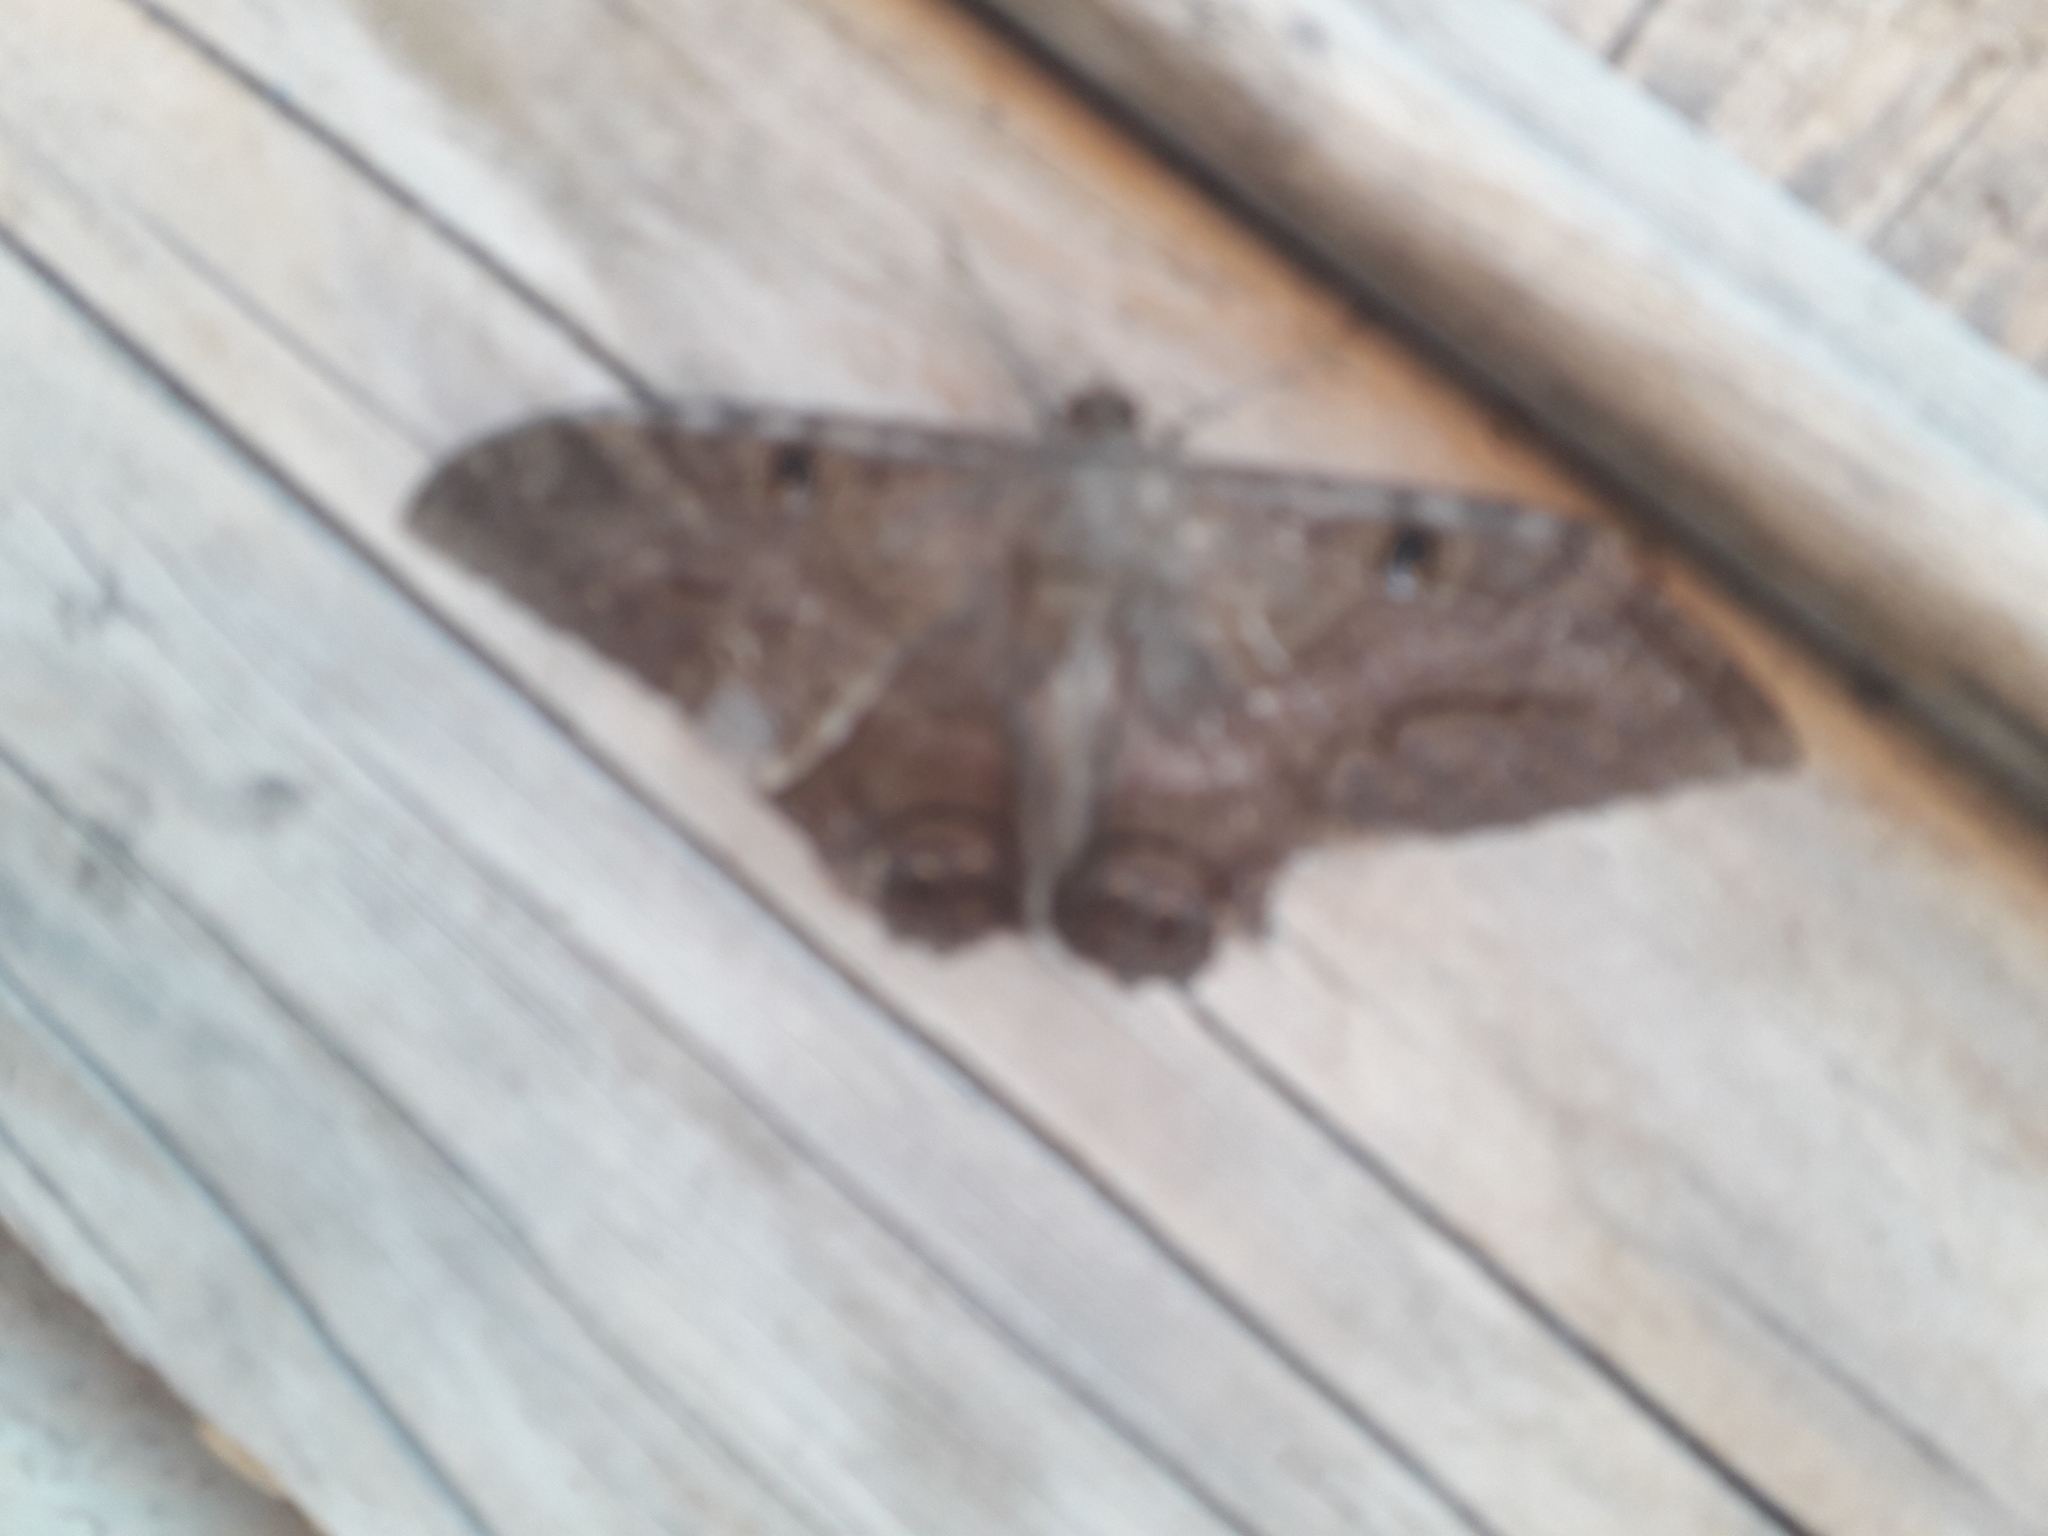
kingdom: Animalia
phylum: Arthropoda
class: Insecta
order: Lepidoptera
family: Erebidae
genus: Ascalapha
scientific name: Ascalapha odorata
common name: Black witch
